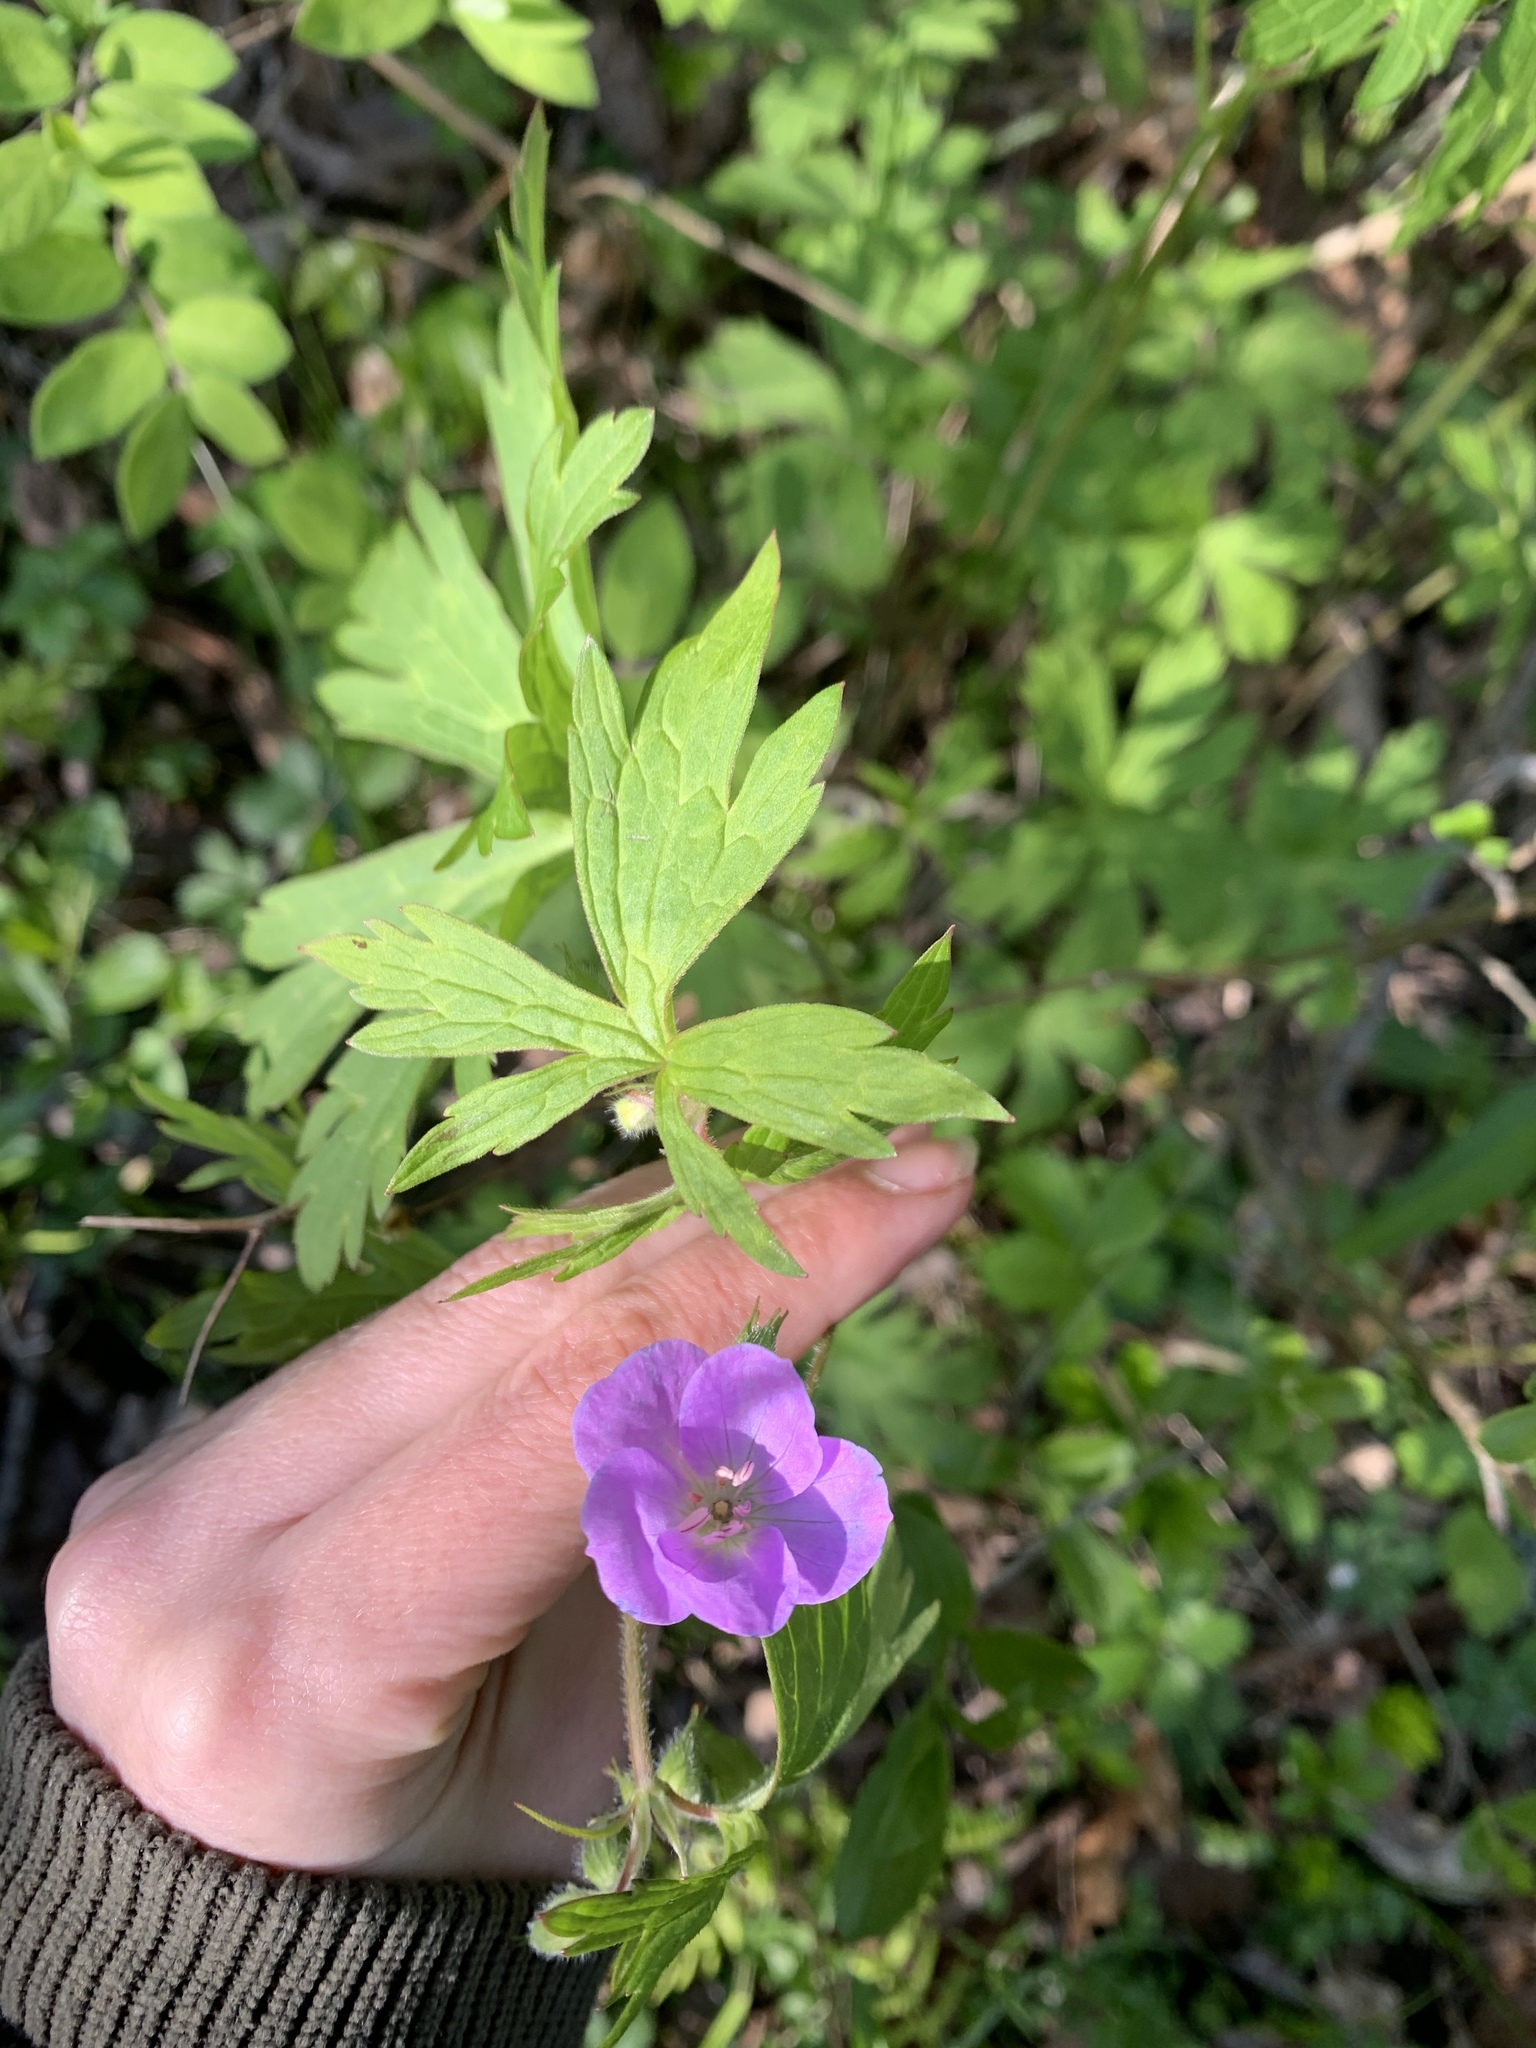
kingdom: Plantae
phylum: Tracheophyta
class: Magnoliopsida
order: Geraniales
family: Geraniaceae
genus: Geranium
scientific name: Geranium maculatum
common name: Spotted geranium
